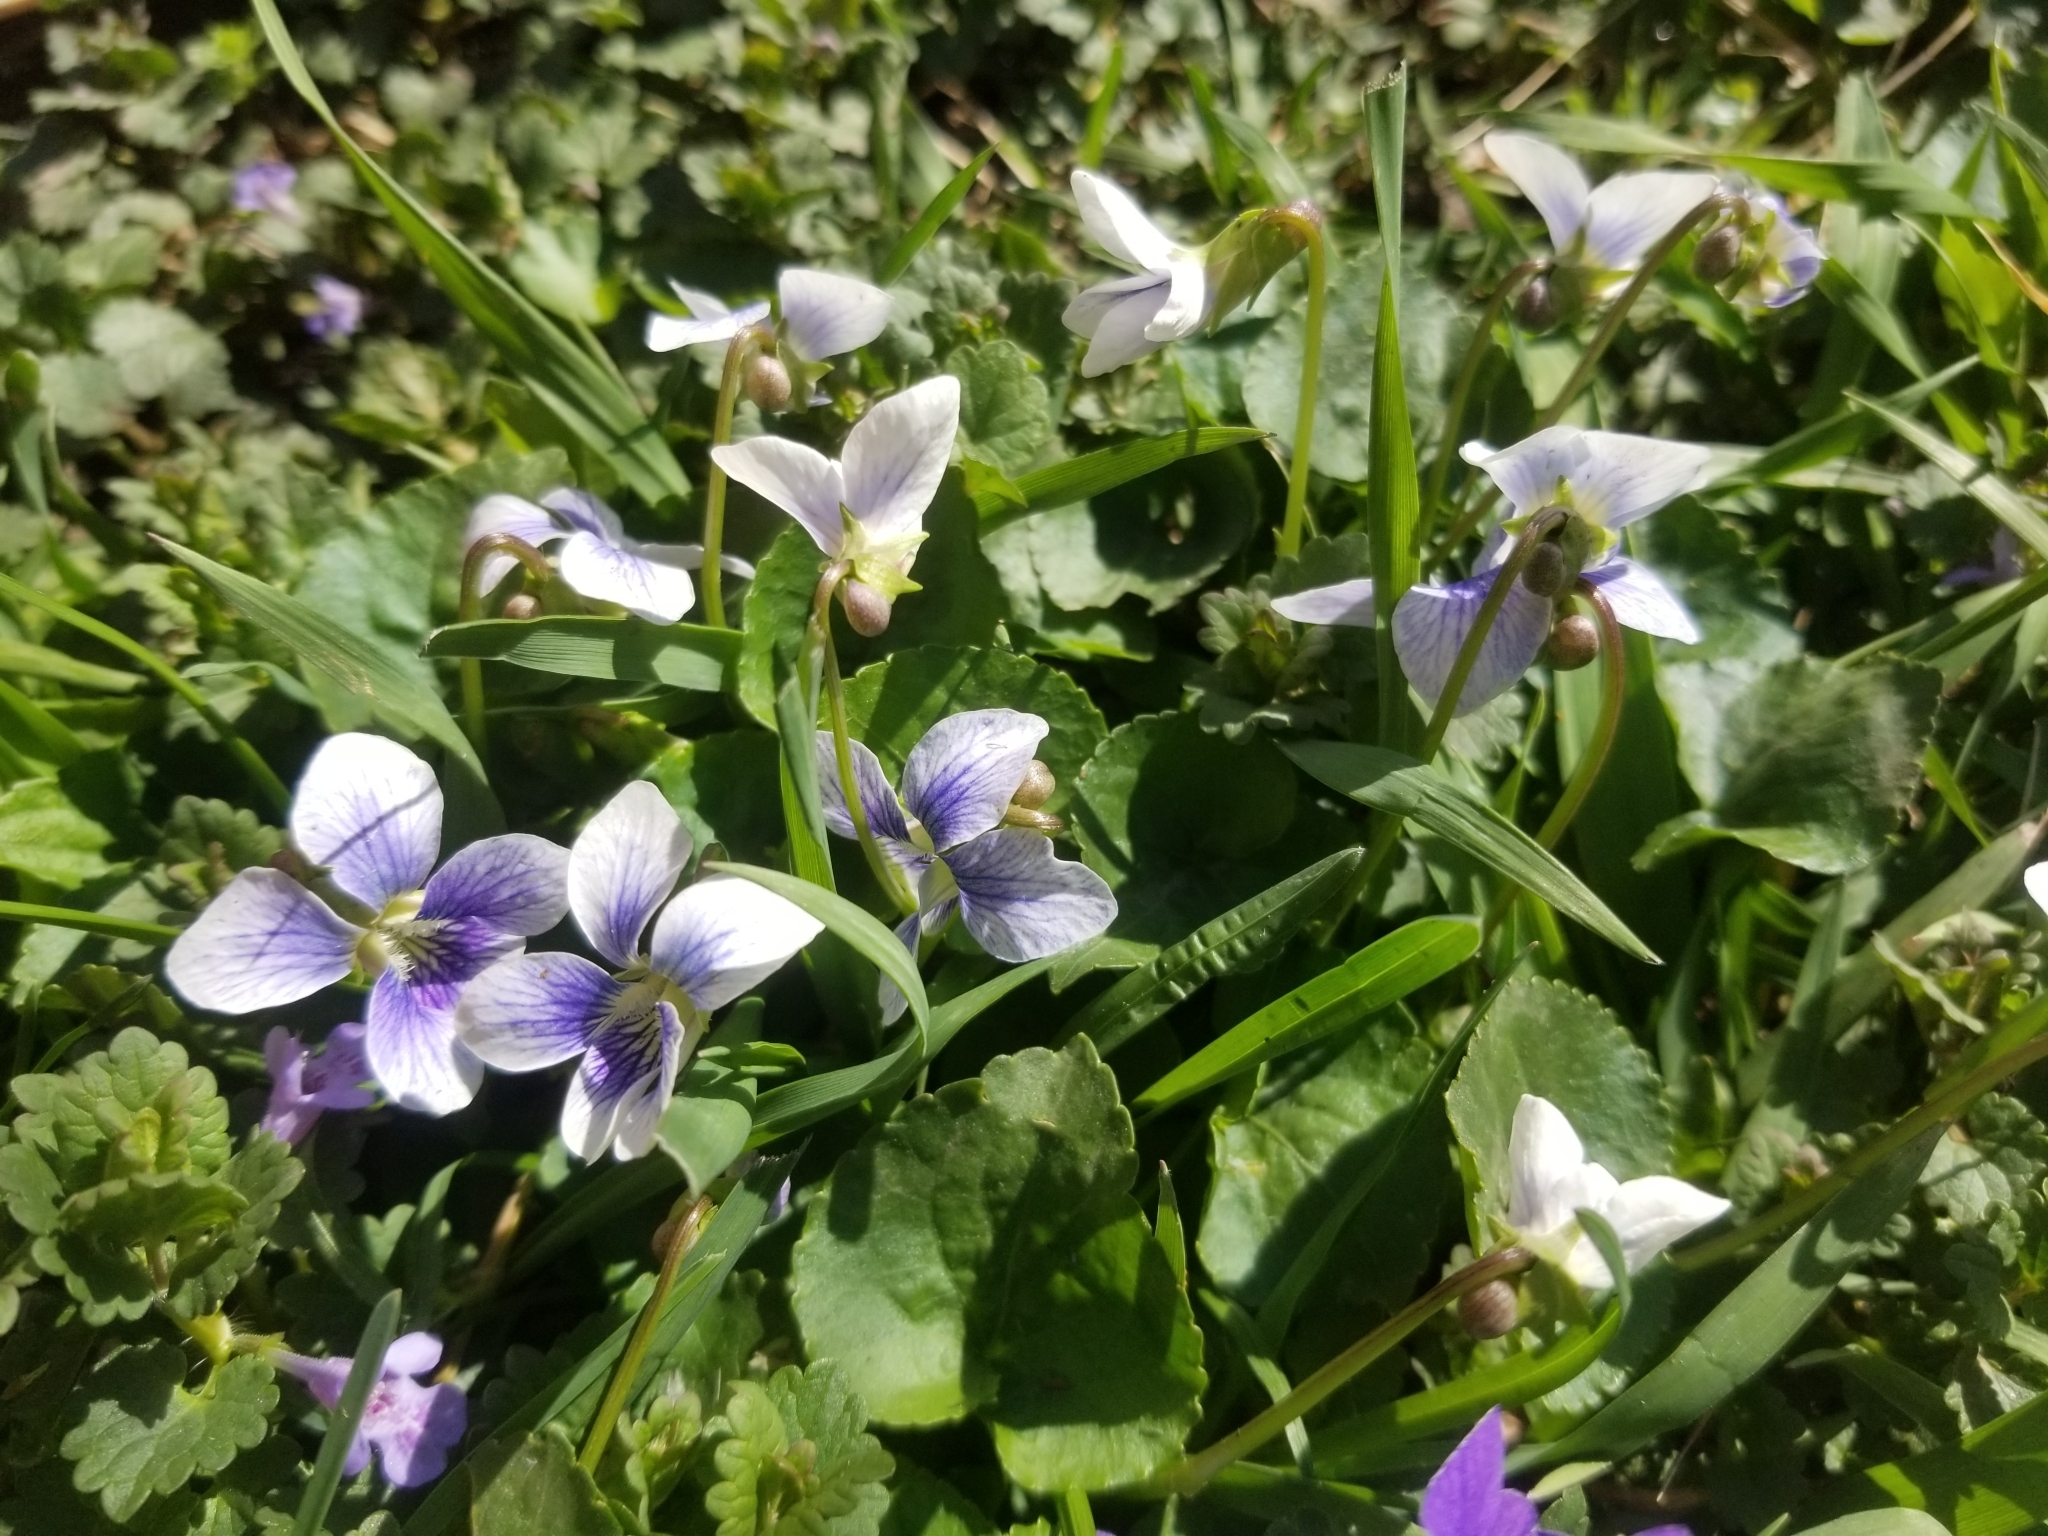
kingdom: Plantae
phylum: Tracheophyta
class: Magnoliopsida
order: Malpighiales
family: Violaceae
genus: Viola
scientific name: Viola sororia
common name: Dooryard violet
